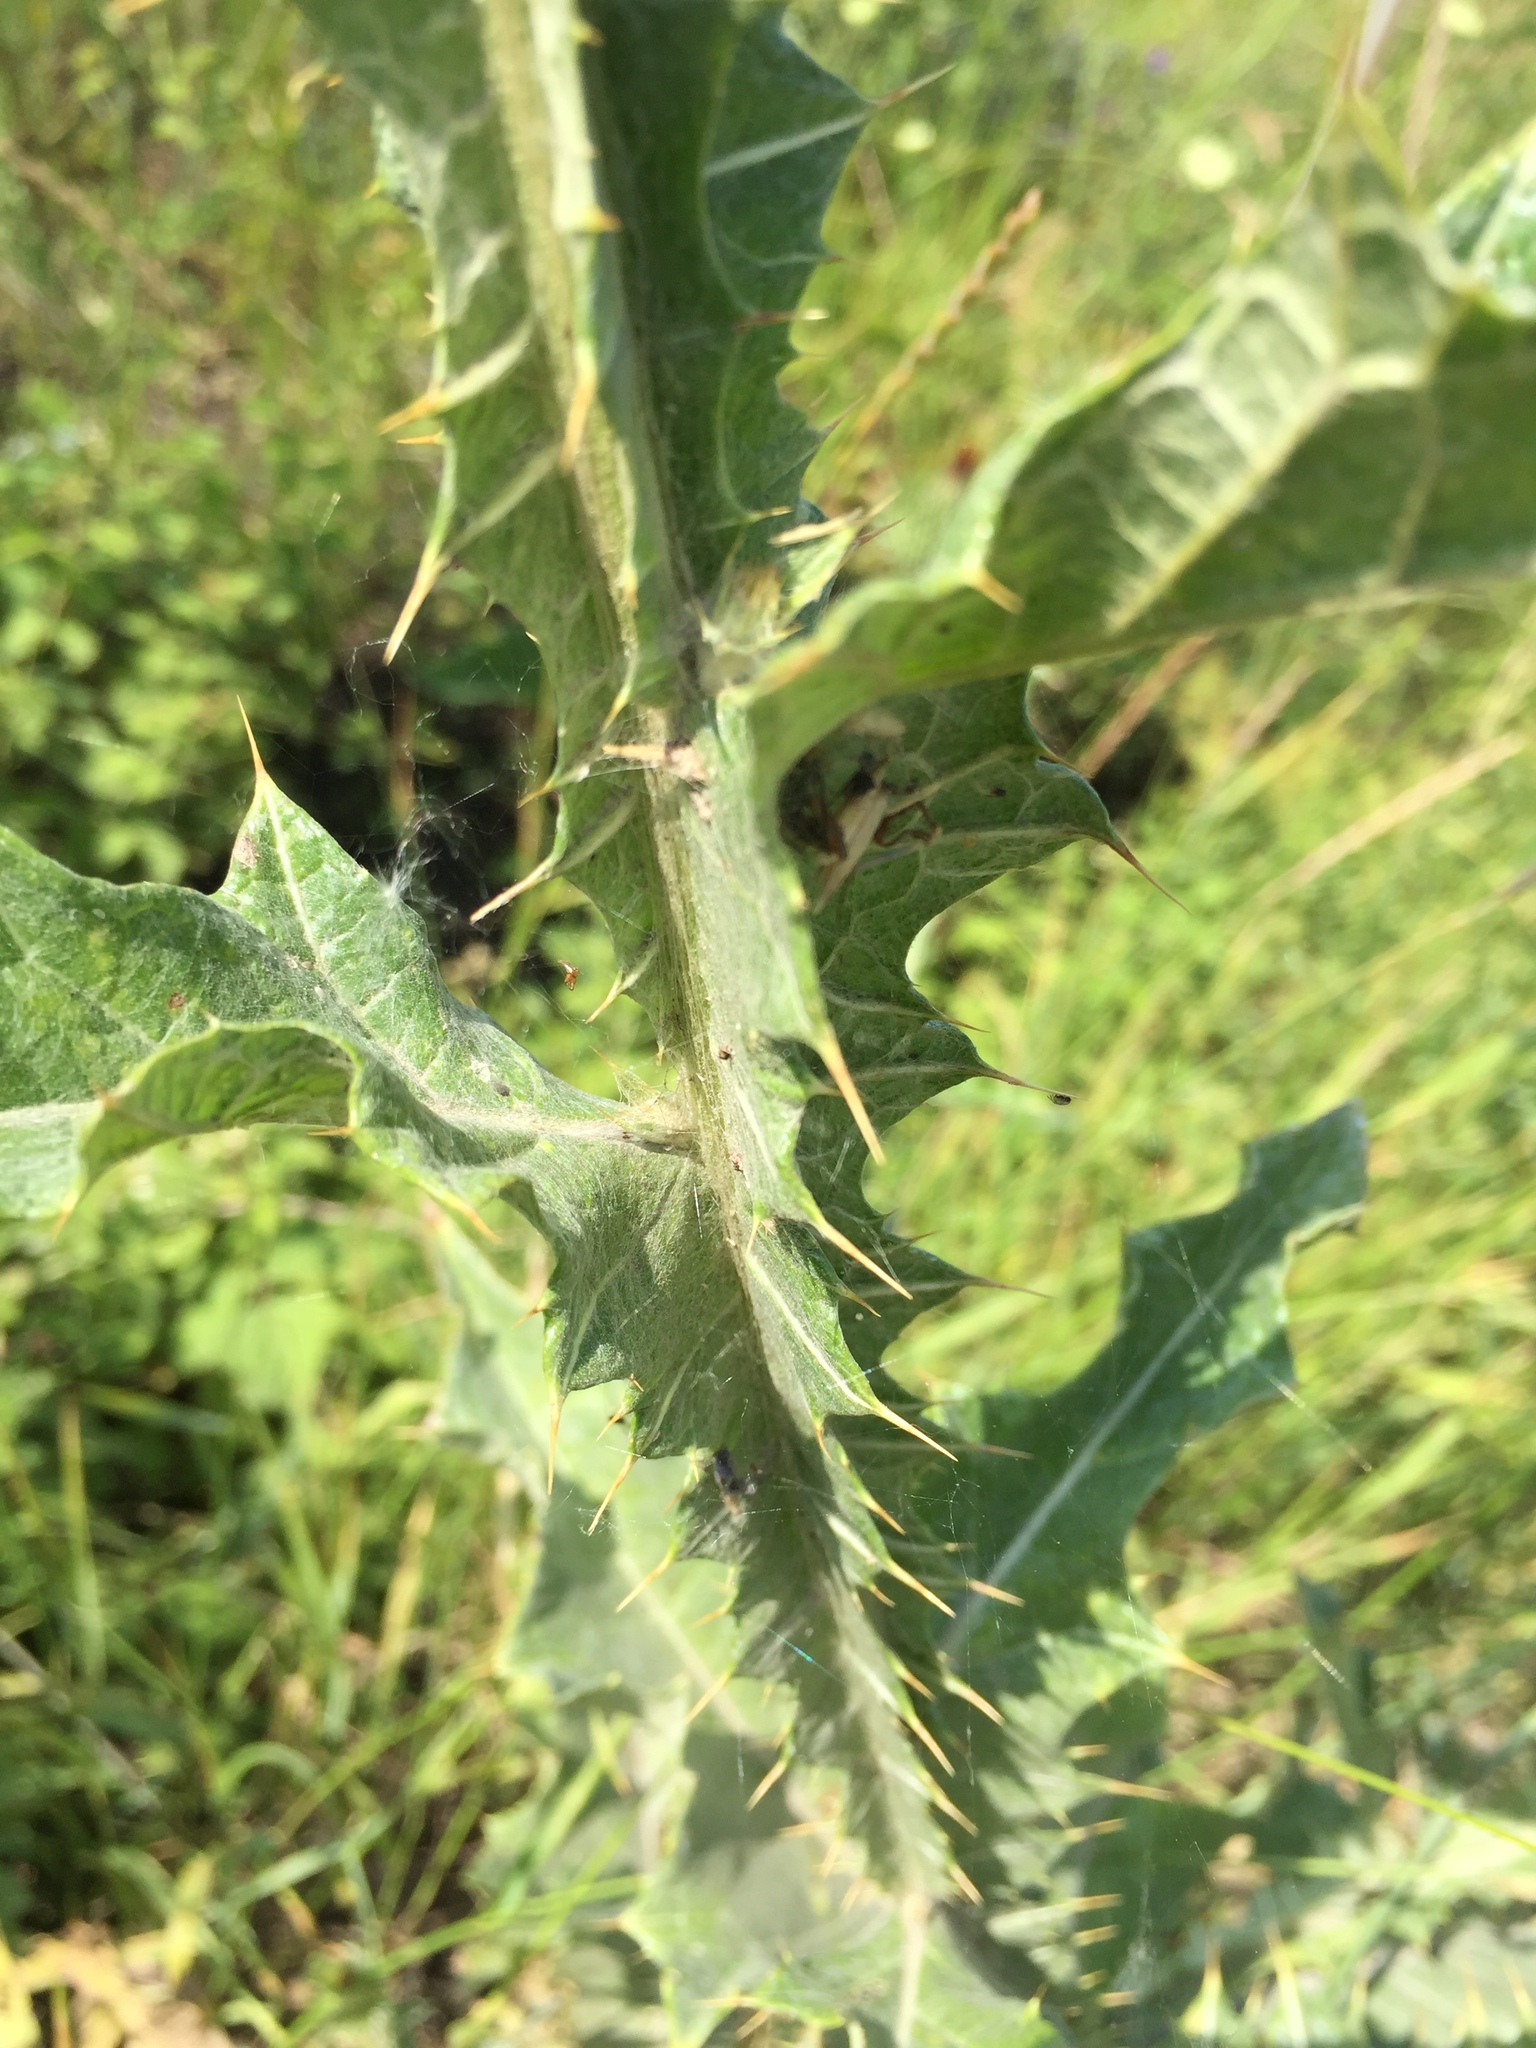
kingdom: Plantae
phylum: Tracheophyta
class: Magnoliopsida
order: Asterales
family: Asteraceae
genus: Onopordum
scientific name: Onopordum acanthium
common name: Scotch thistle
